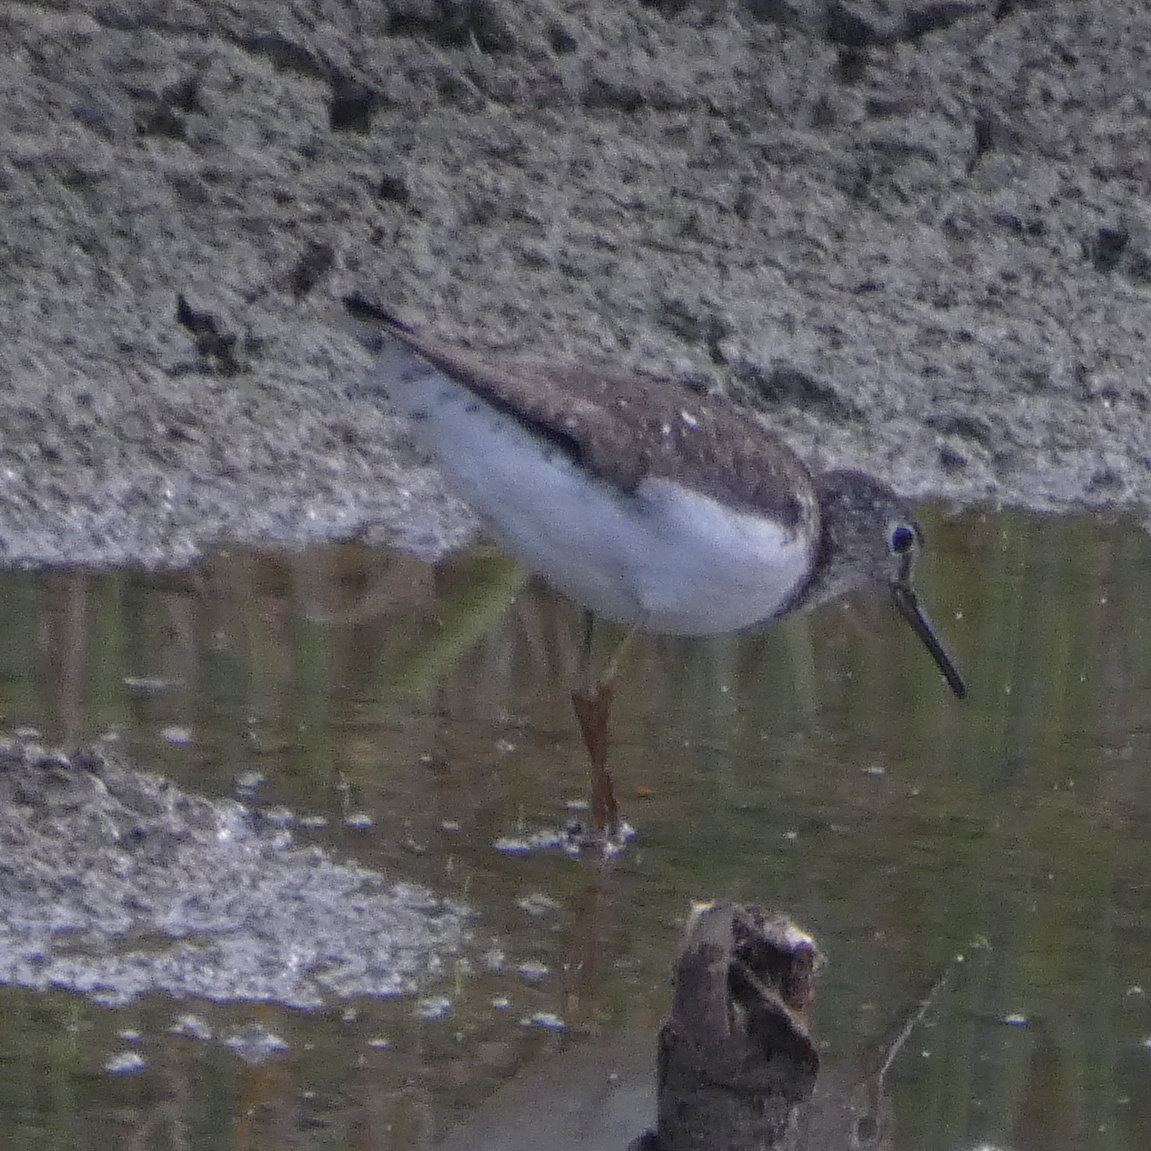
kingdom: Animalia
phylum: Chordata
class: Aves
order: Charadriiformes
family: Scolopacidae
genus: Tringa
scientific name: Tringa solitaria
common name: Solitary sandpiper
